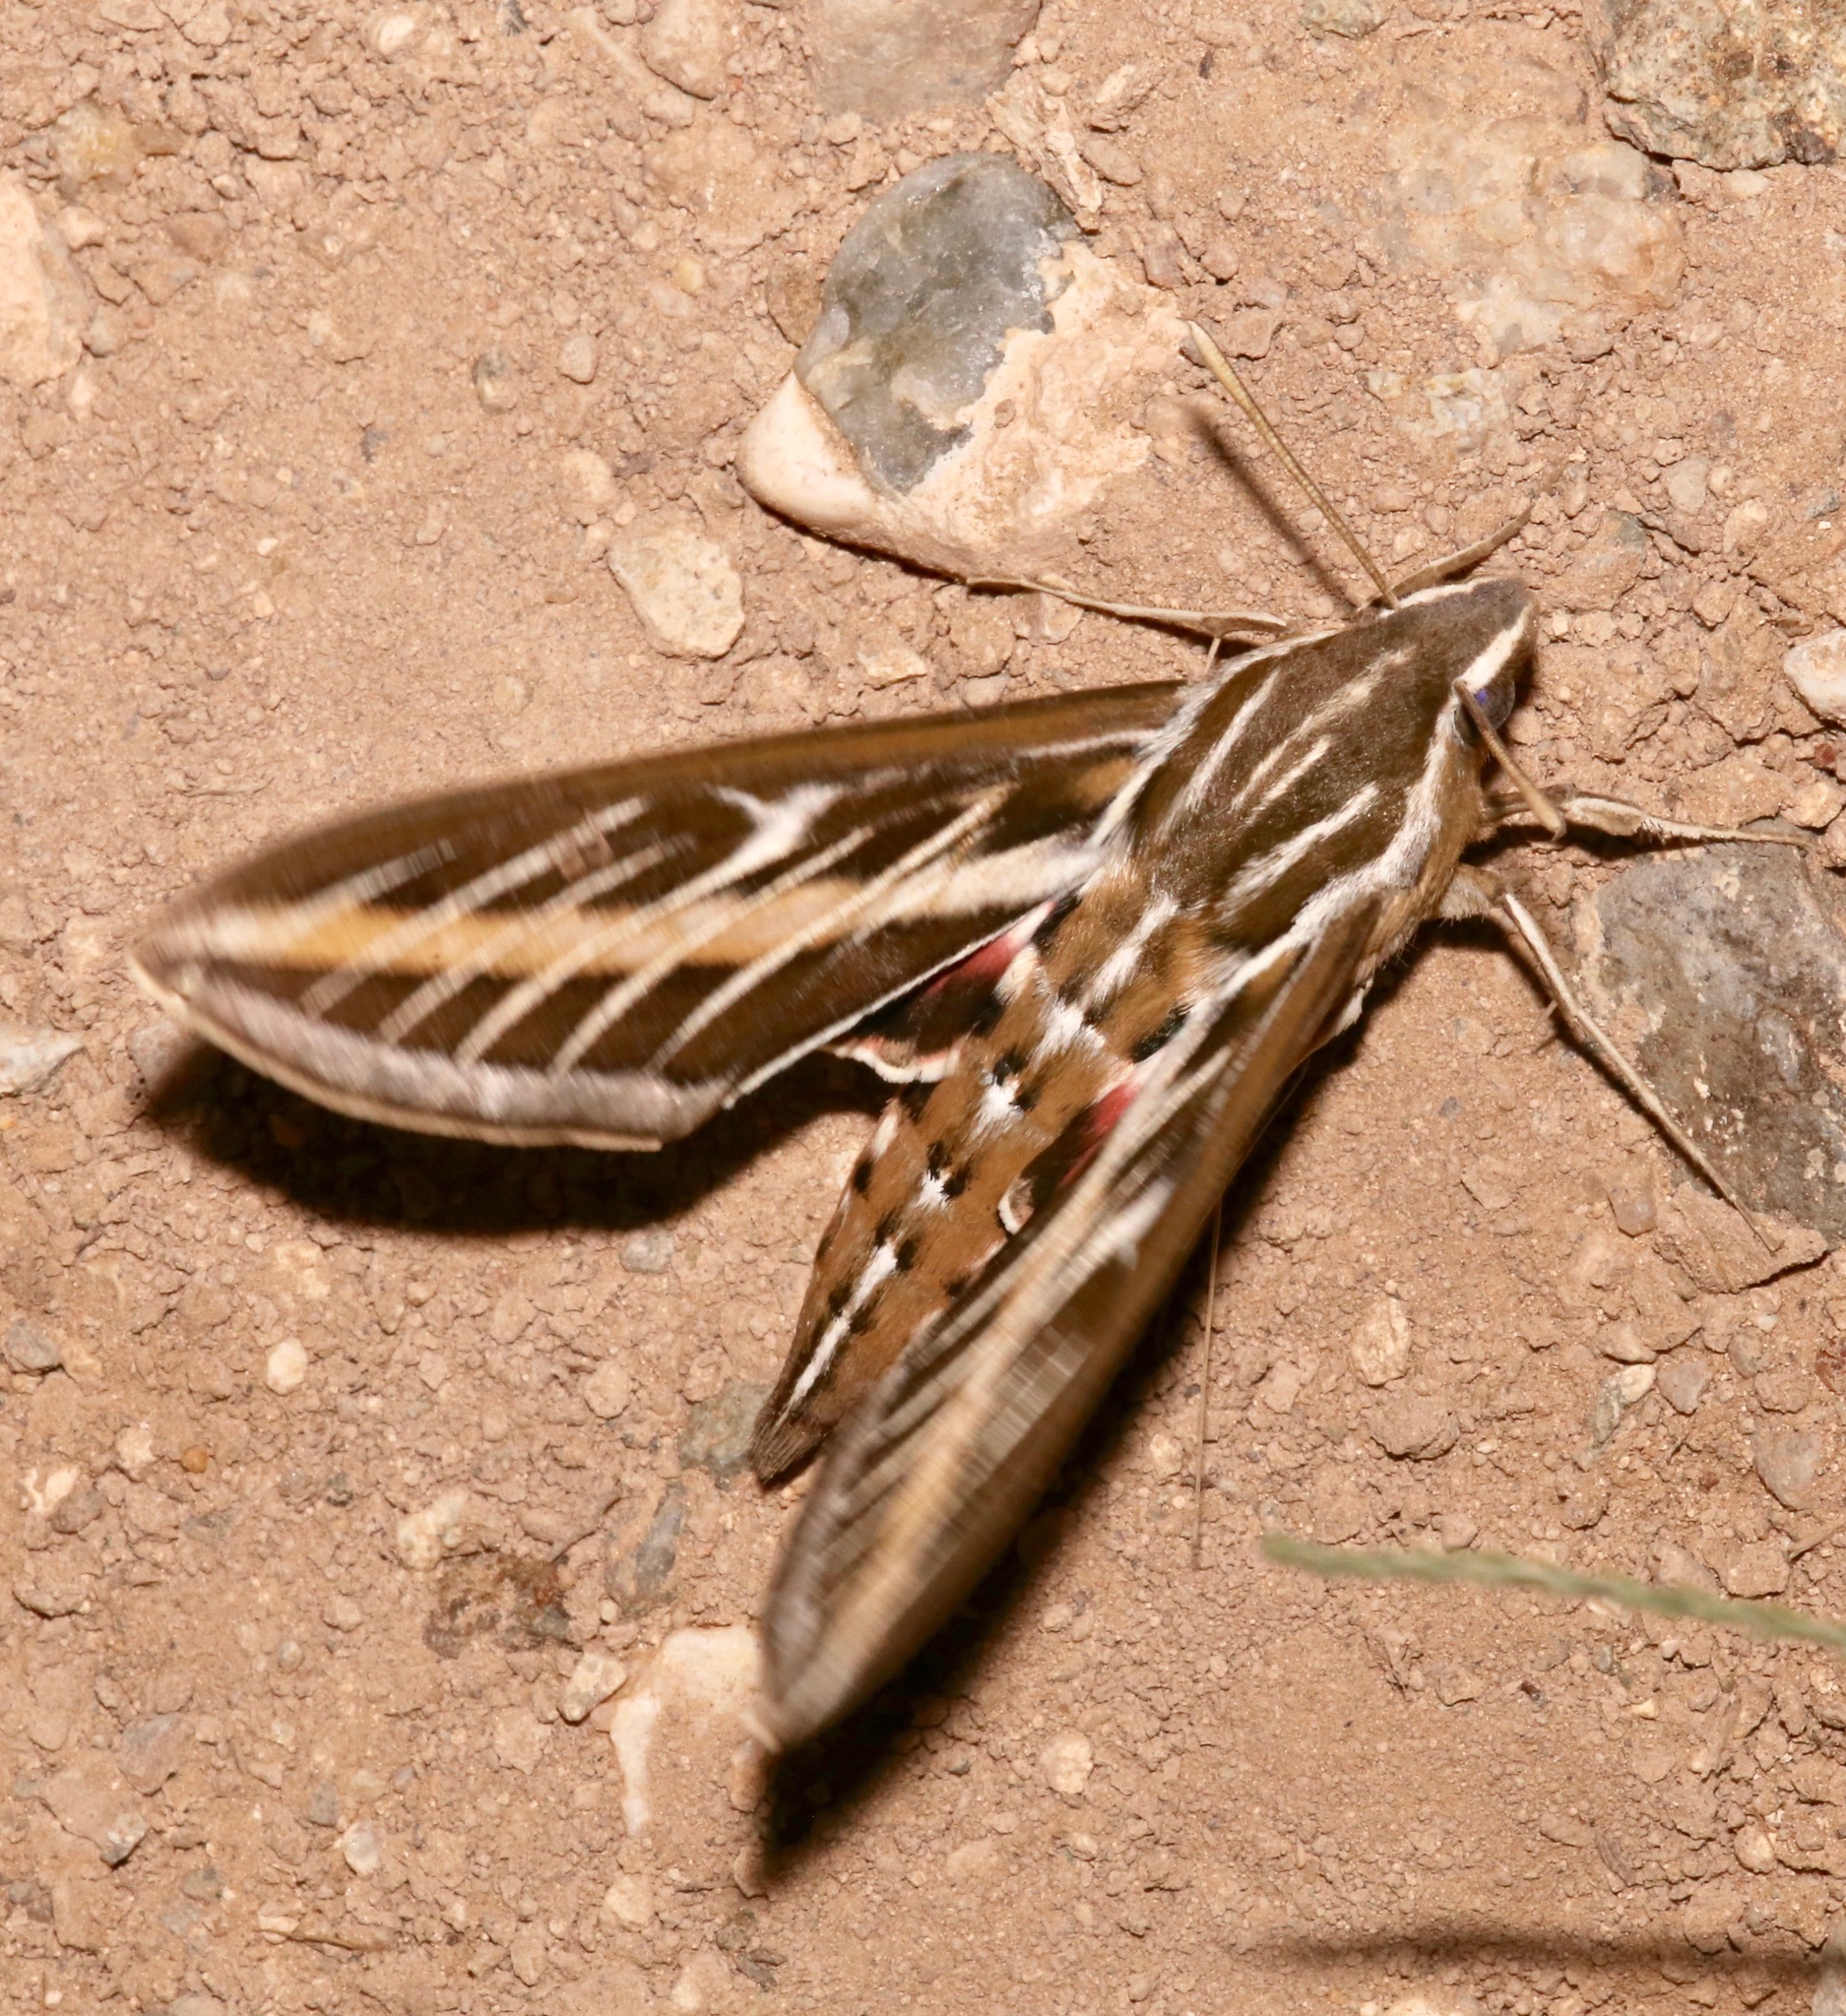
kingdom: Animalia
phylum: Arthropoda
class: Insecta
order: Lepidoptera
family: Sphingidae
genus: Hyles
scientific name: Hyles lineata
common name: White-lined sphinx
